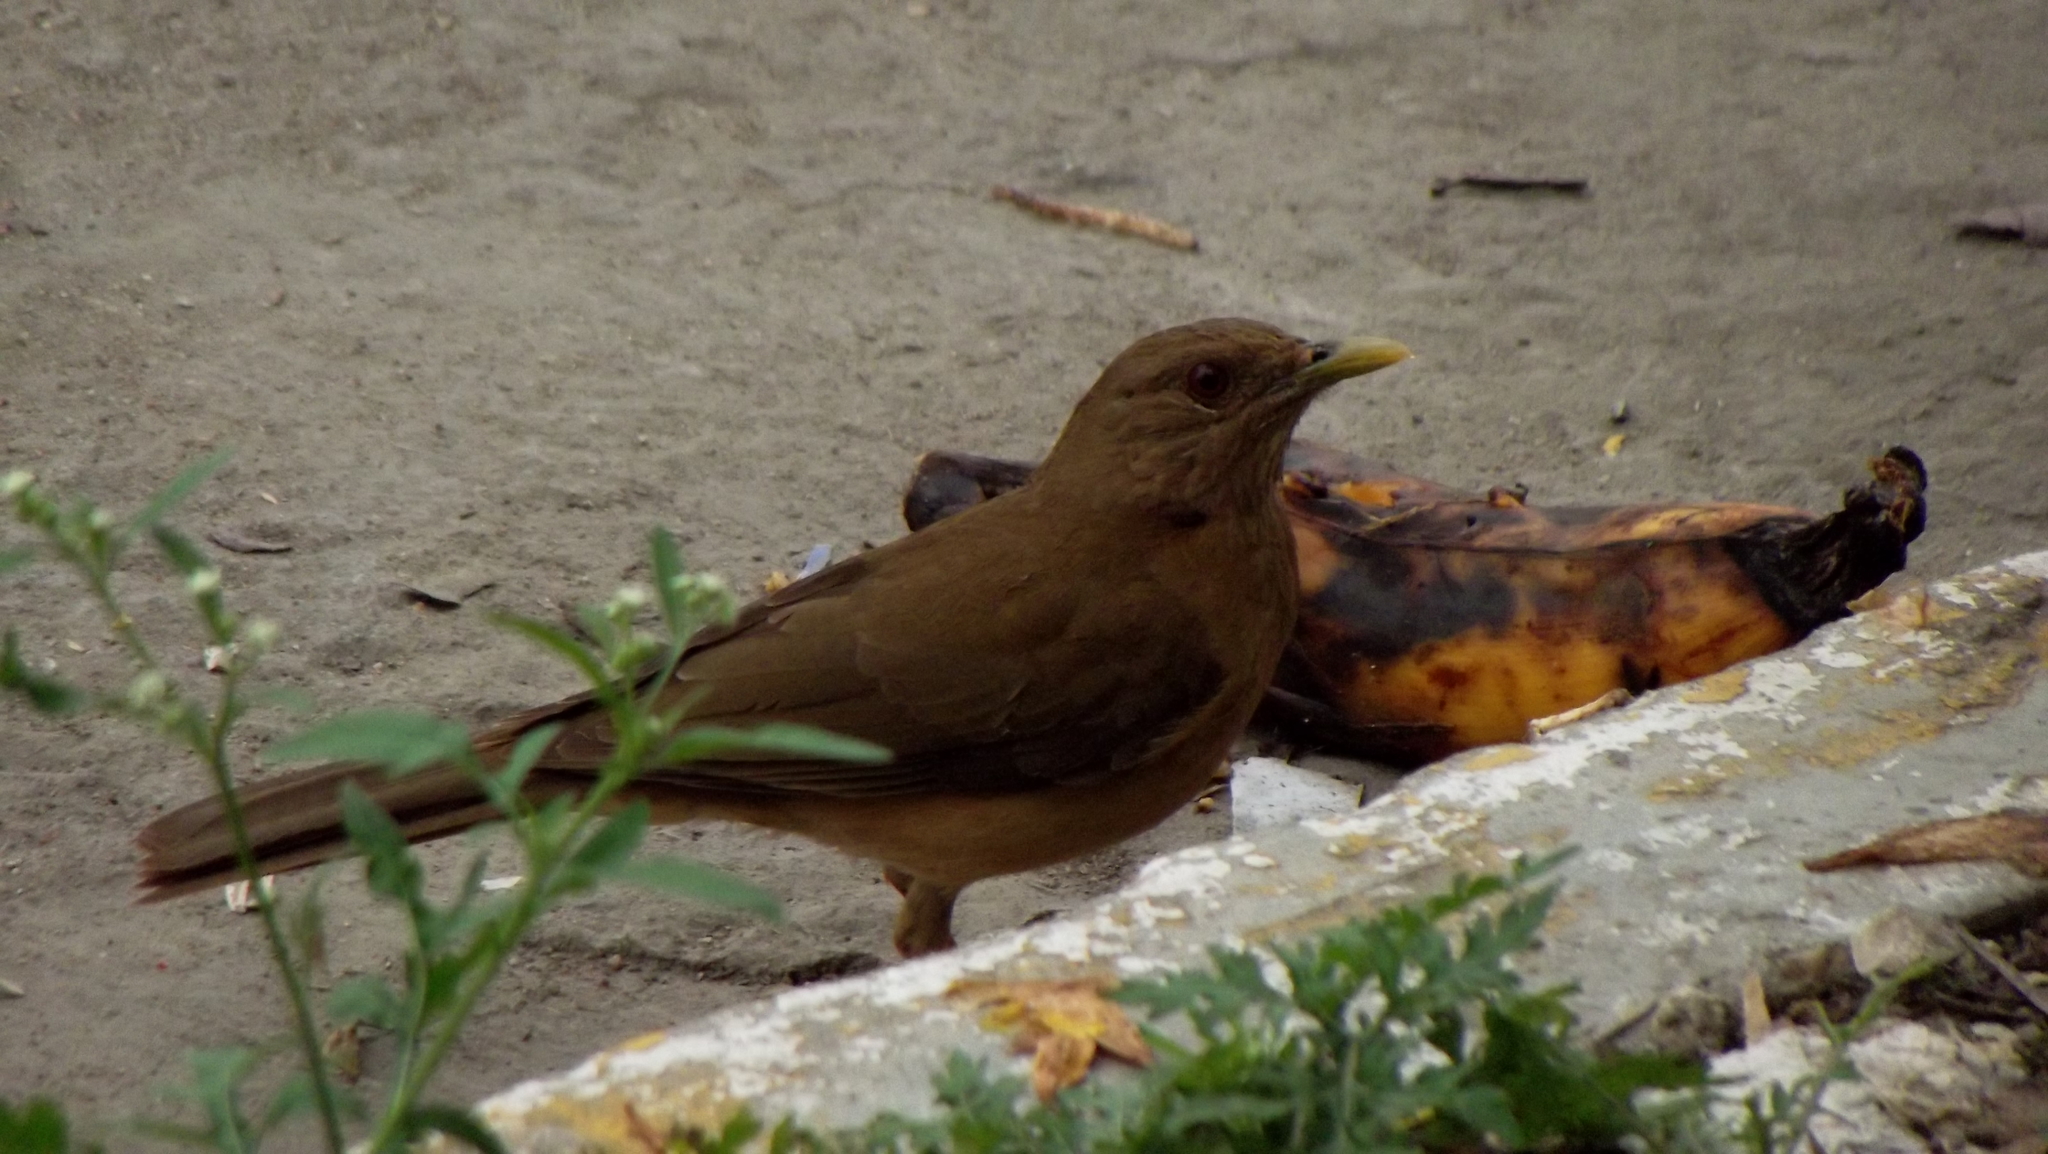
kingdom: Animalia
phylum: Chordata
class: Aves
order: Passeriformes
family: Turdidae
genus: Turdus
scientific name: Turdus grayi
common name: Clay-colored thrush
